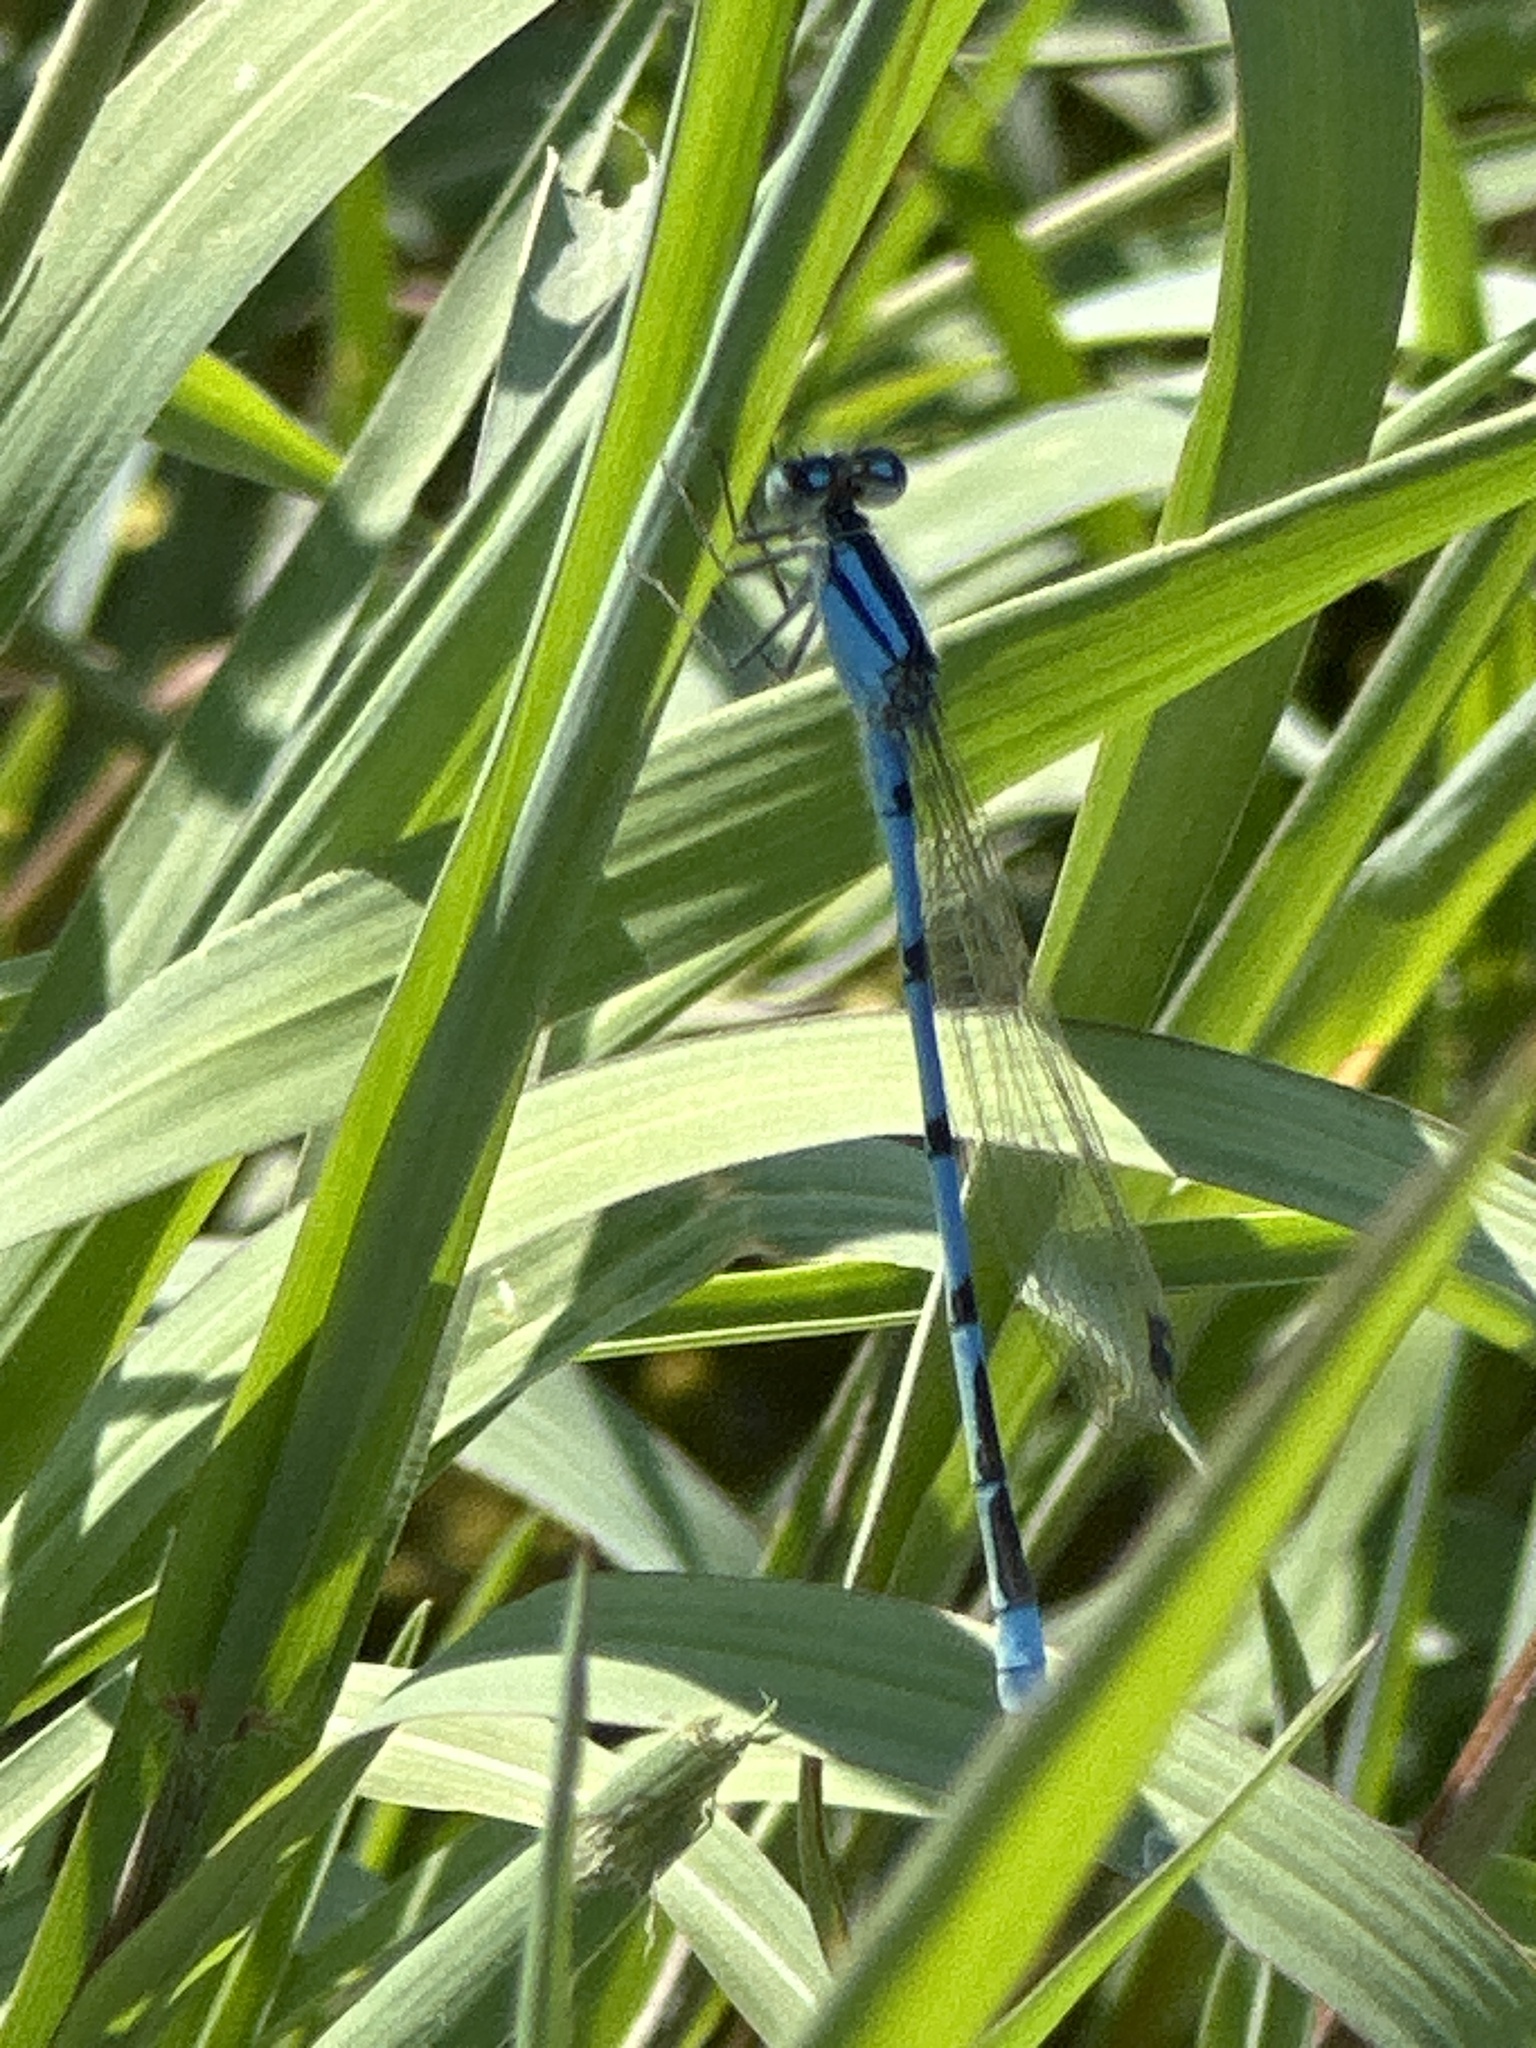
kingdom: Animalia
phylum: Arthropoda
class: Insecta
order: Odonata
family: Coenagrionidae
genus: Enallagma
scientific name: Enallagma civile
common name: Damselfly
